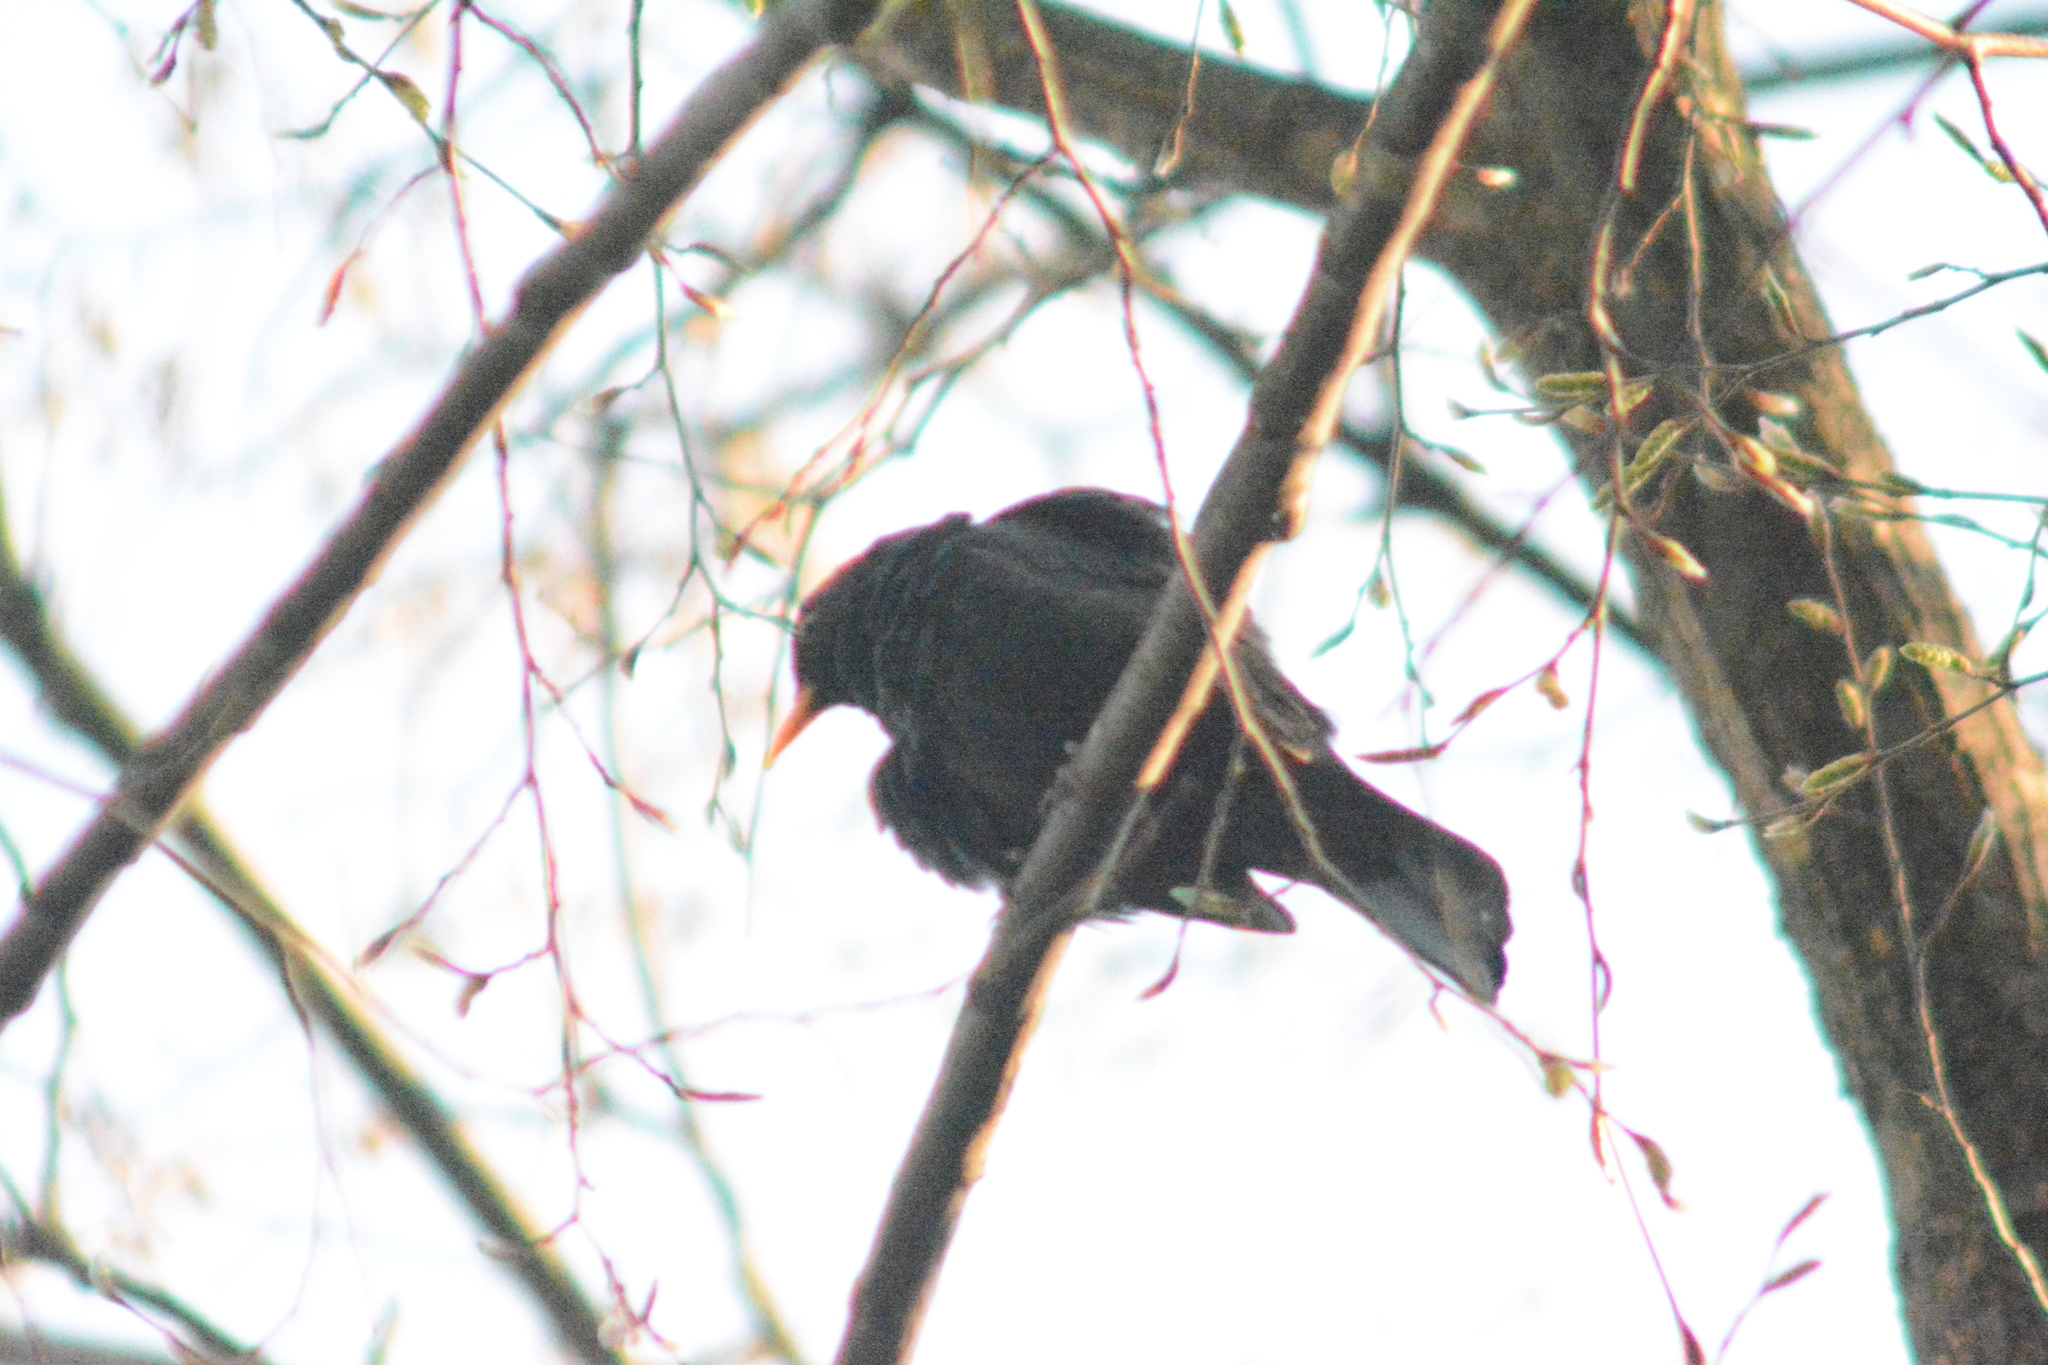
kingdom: Animalia
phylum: Chordata
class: Aves
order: Passeriformes
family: Turdidae
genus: Turdus
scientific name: Turdus merula
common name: Common blackbird
